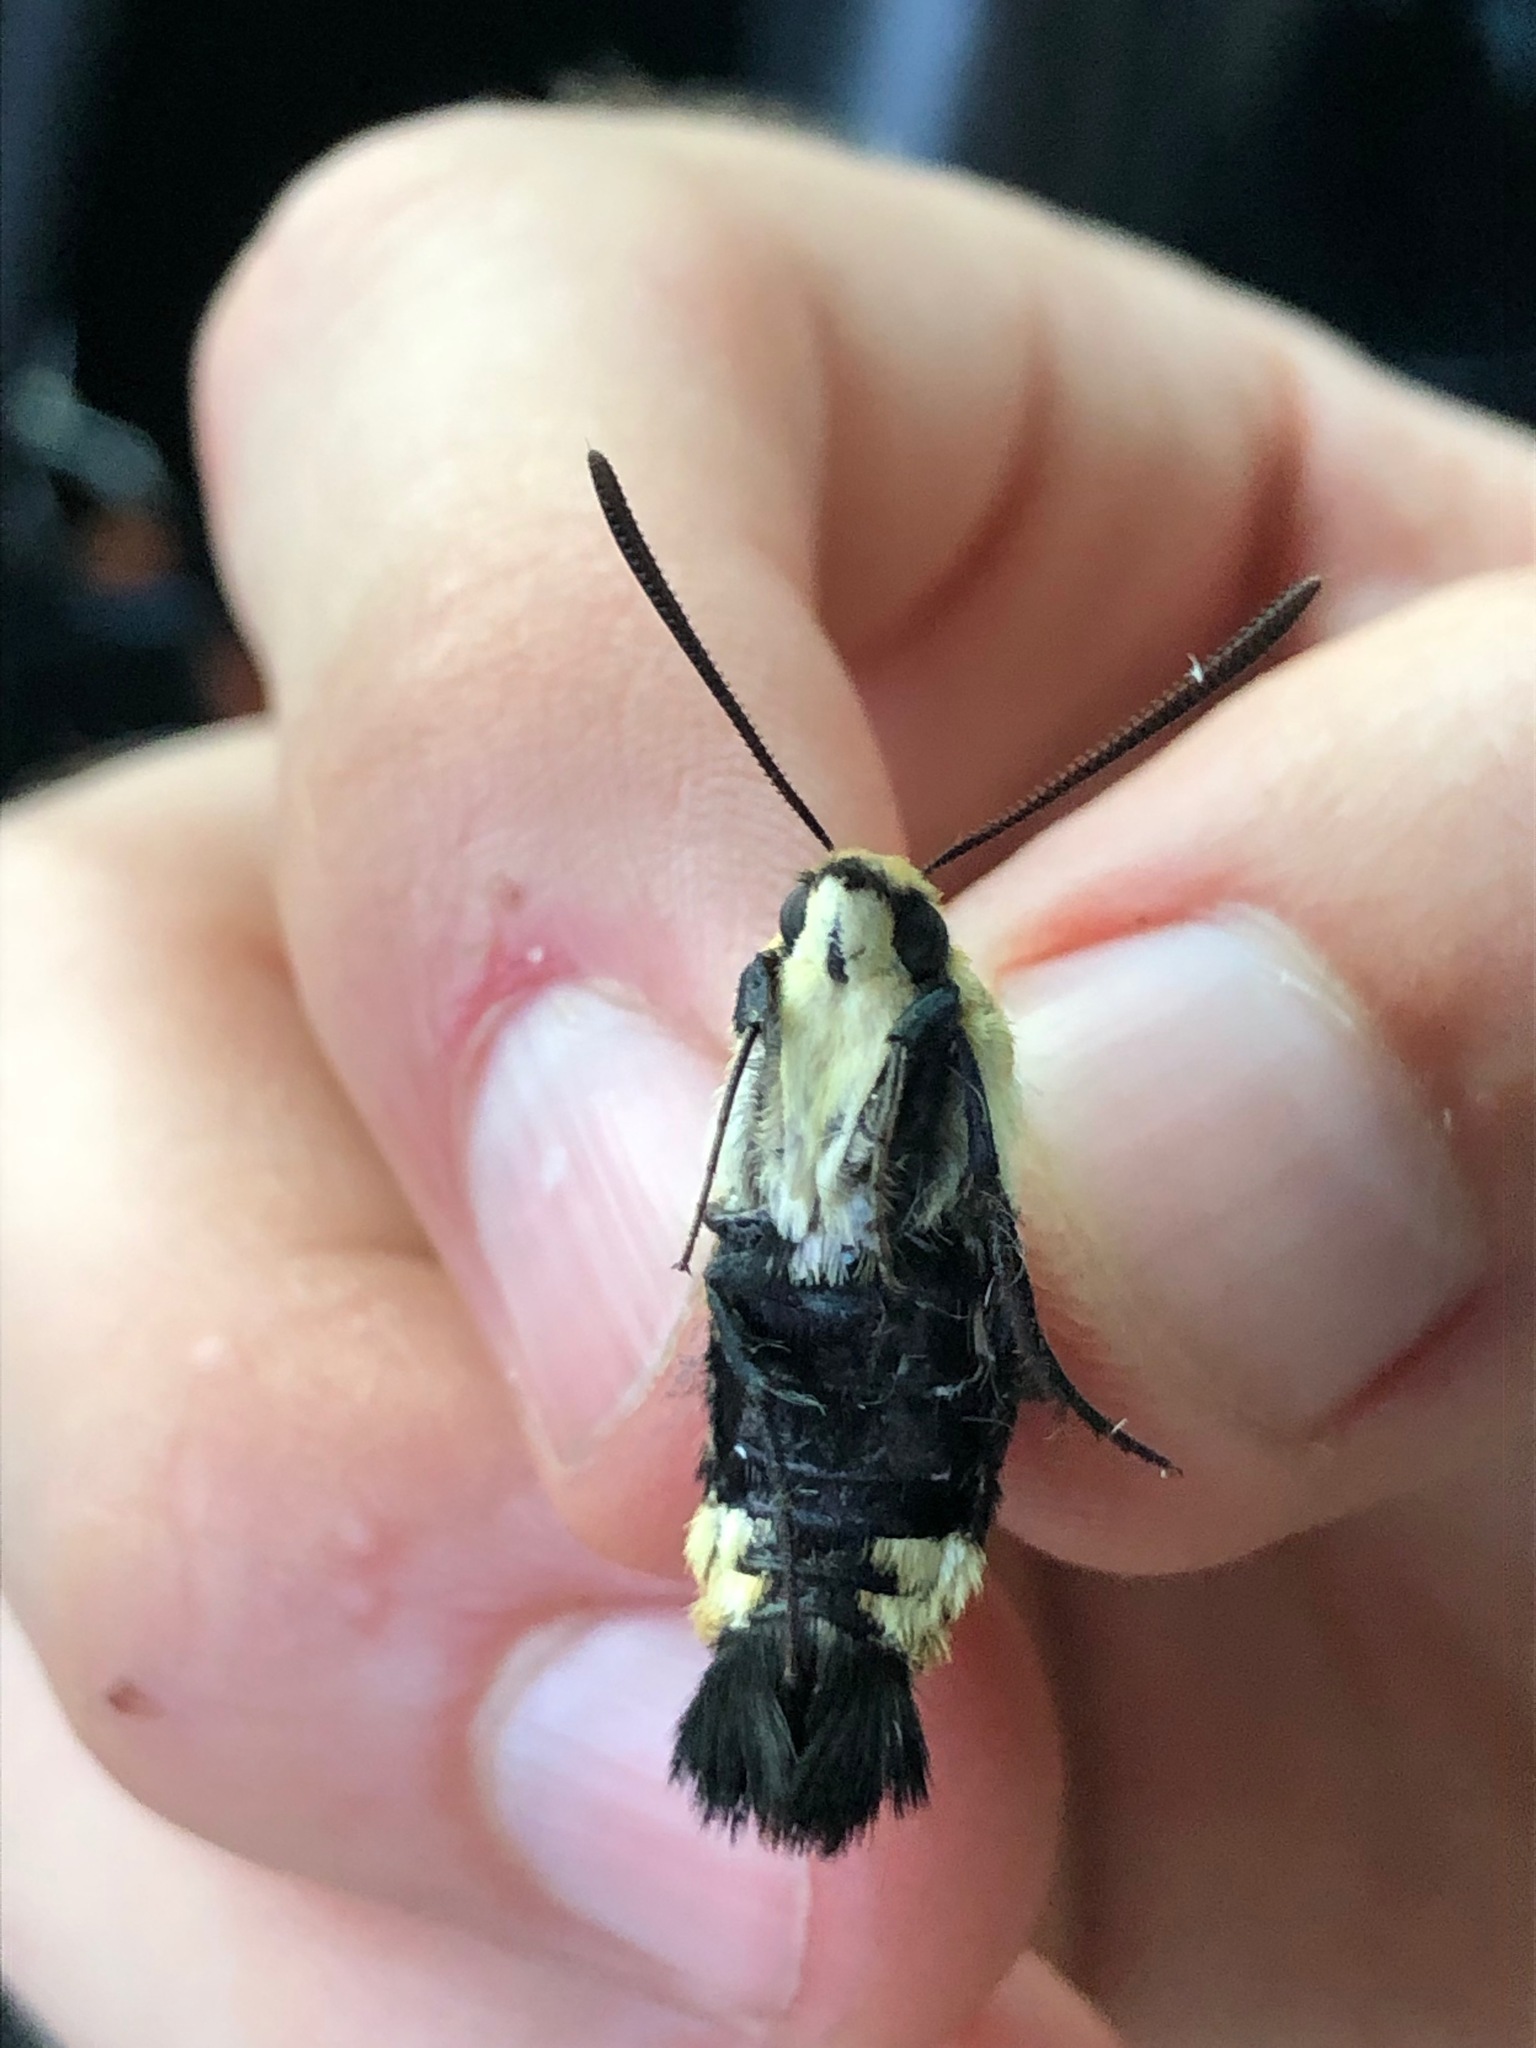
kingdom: Animalia
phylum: Arthropoda
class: Insecta
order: Lepidoptera
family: Sphingidae
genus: Hemaris
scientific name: Hemaris diffinis
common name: Bumblebee moth
